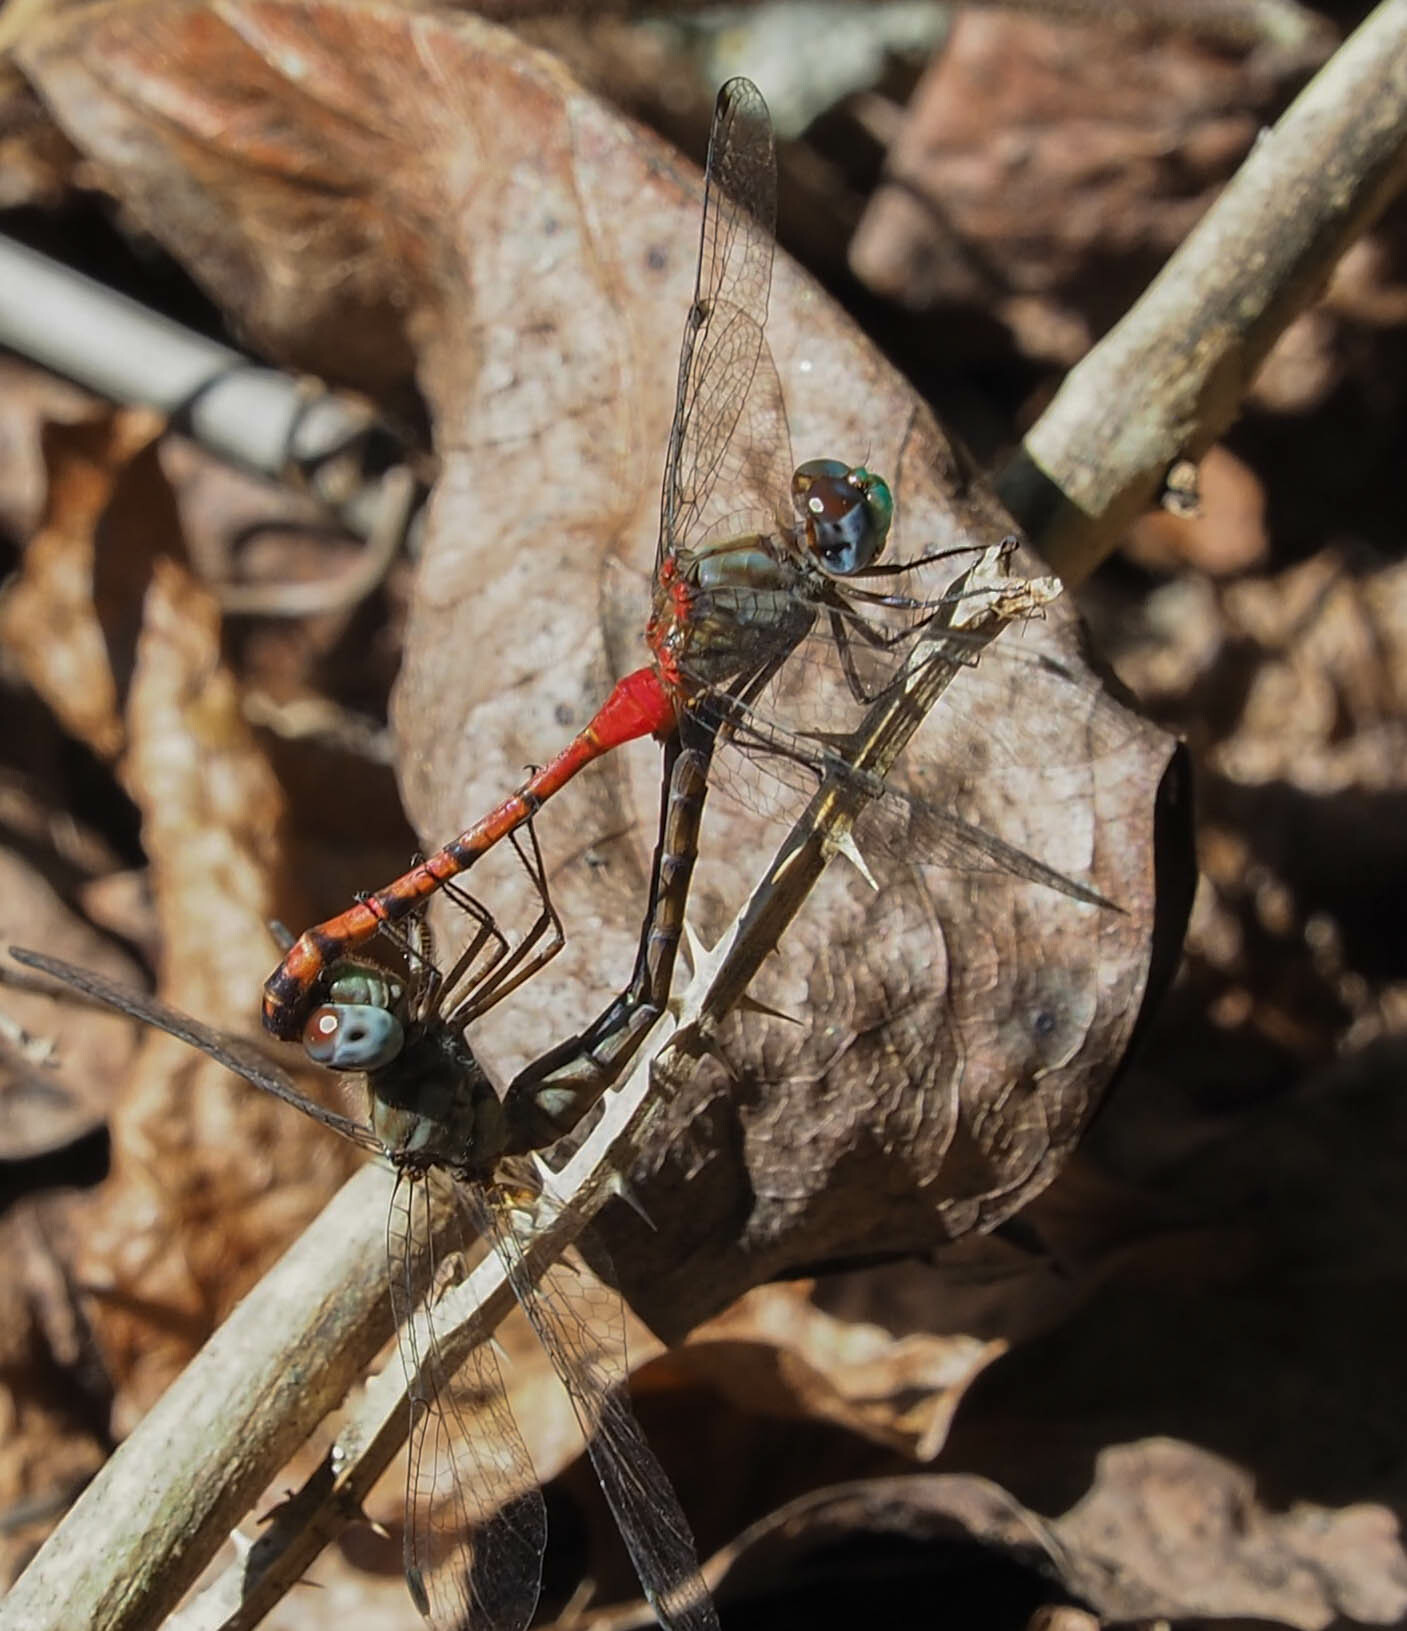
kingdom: Animalia
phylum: Arthropoda
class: Insecta
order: Odonata
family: Libellulidae
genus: Sympetrum
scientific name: Sympetrum ambiguum
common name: Blue-faced meadowhawk
